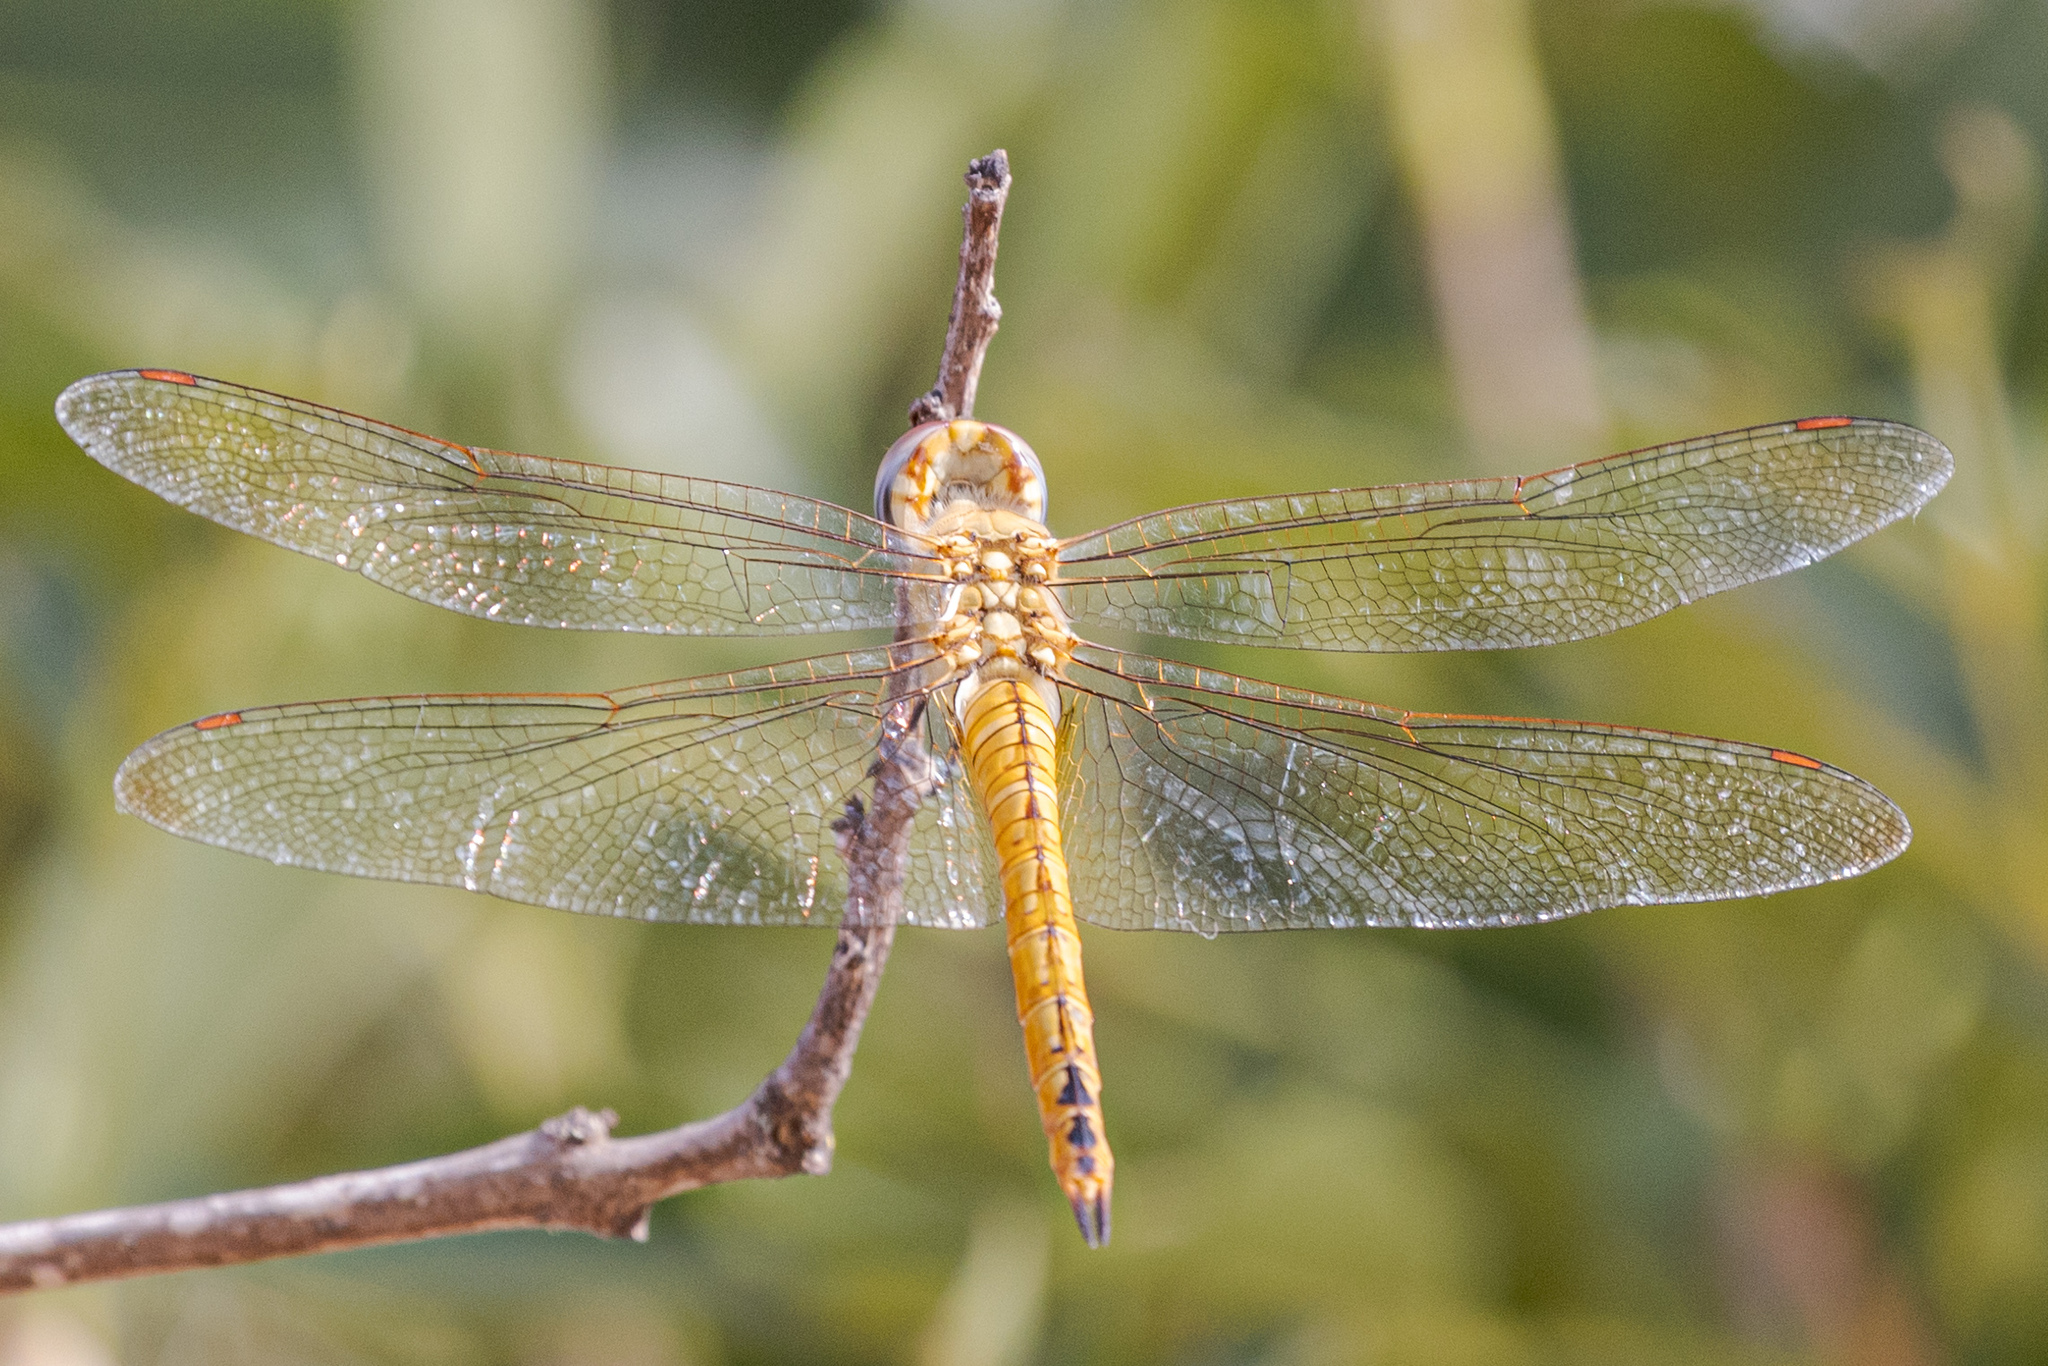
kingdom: Animalia
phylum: Arthropoda
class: Insecta
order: Odonata
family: Libellulidae
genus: Pantala
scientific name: Pantala flavescens
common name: Wandering glider
